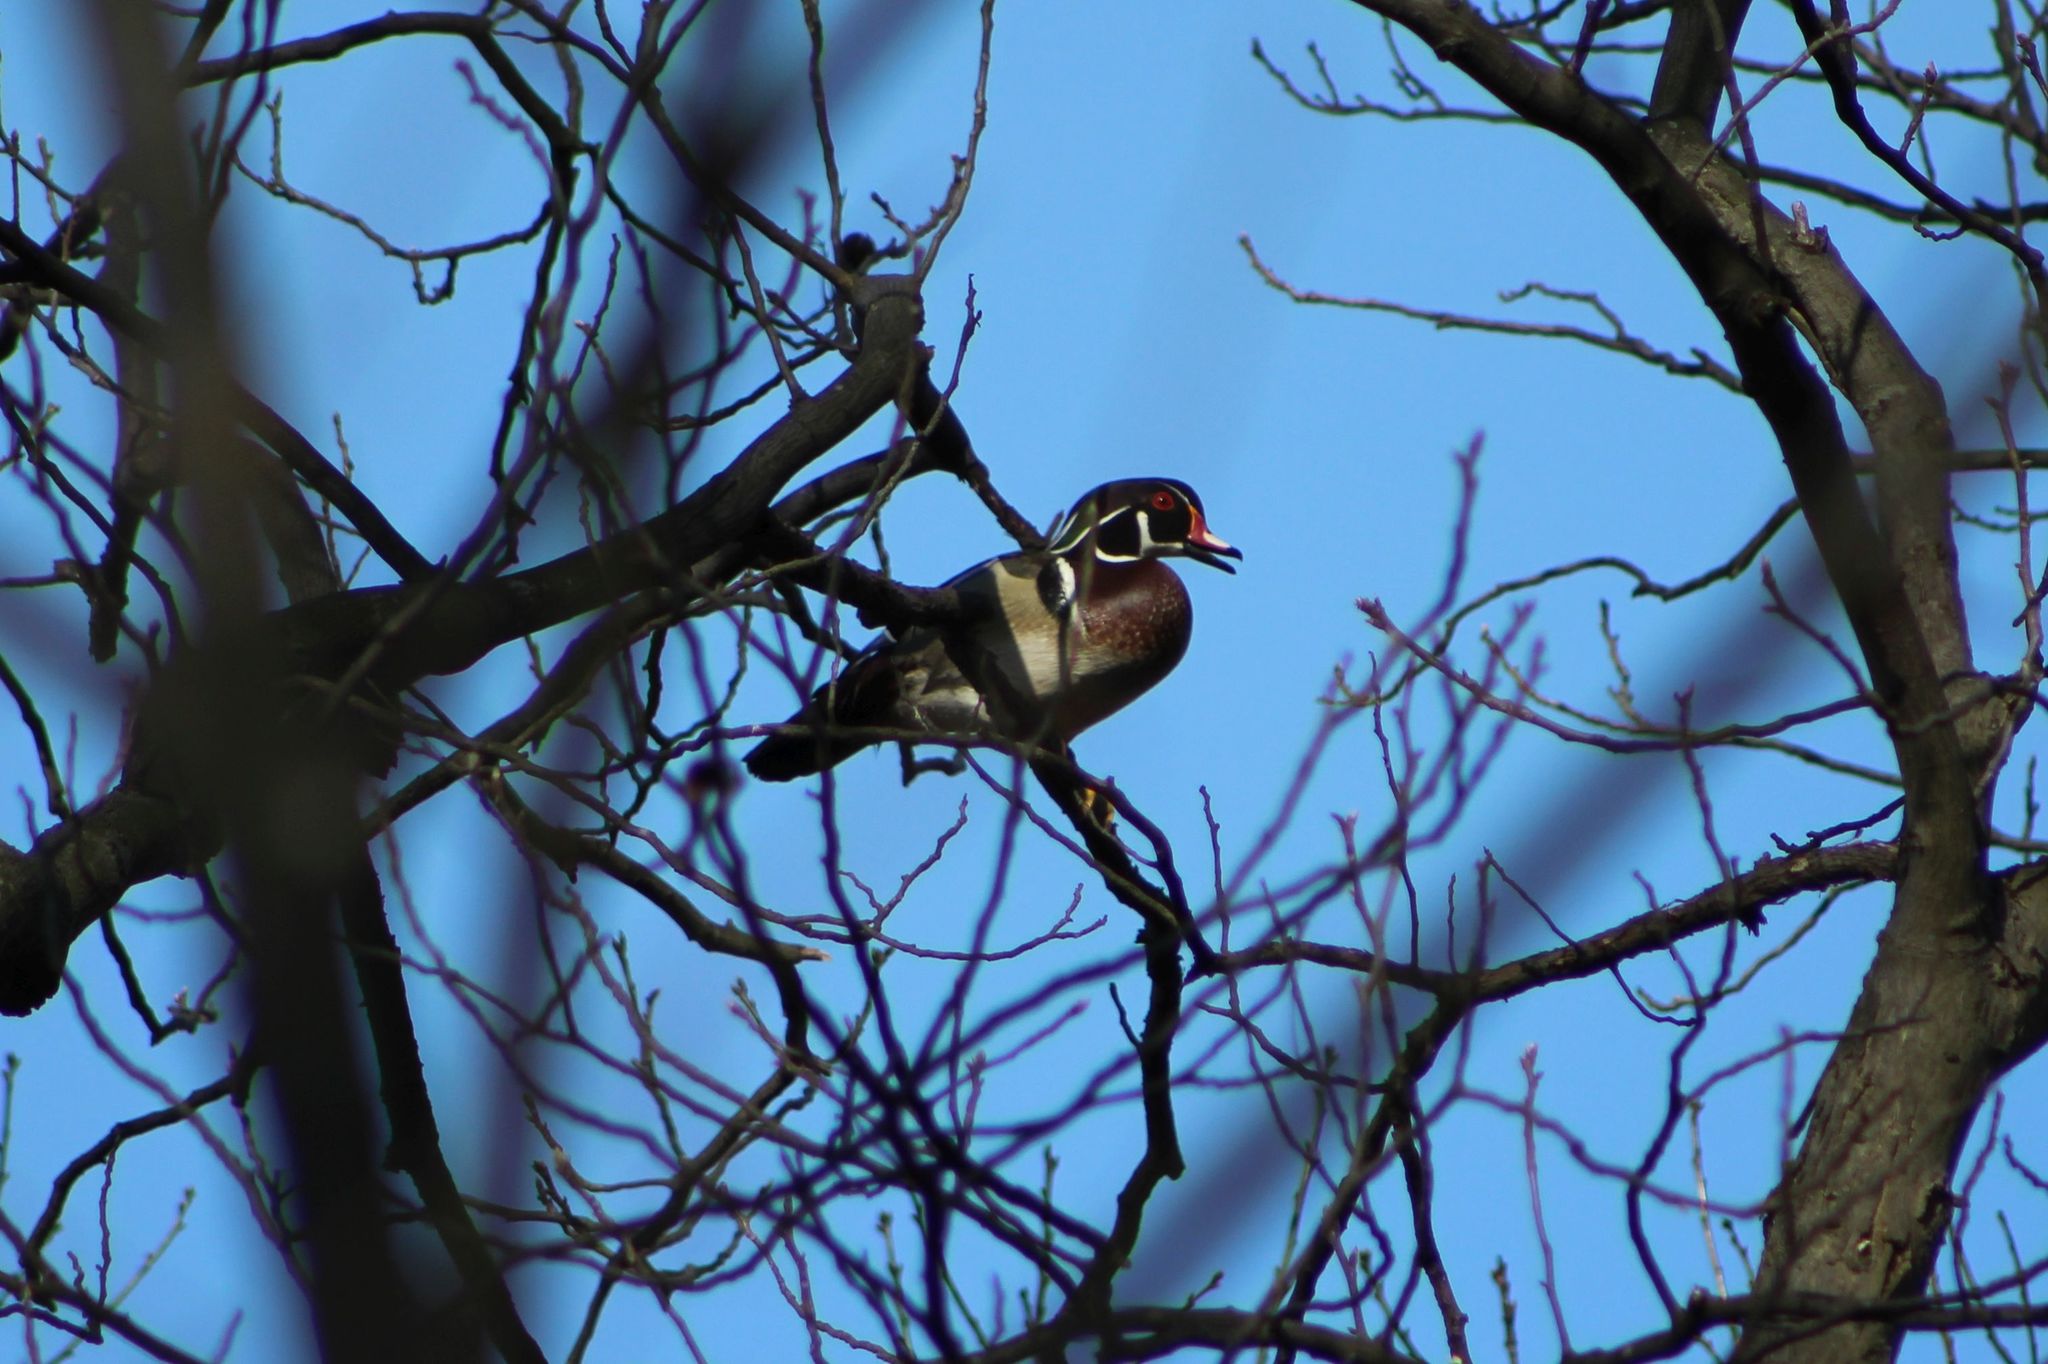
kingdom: Animalia
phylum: Chordata
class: Aves
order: Anseriformes
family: Anatidae
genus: Aix
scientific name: Aix sponsa
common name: Wood duck
